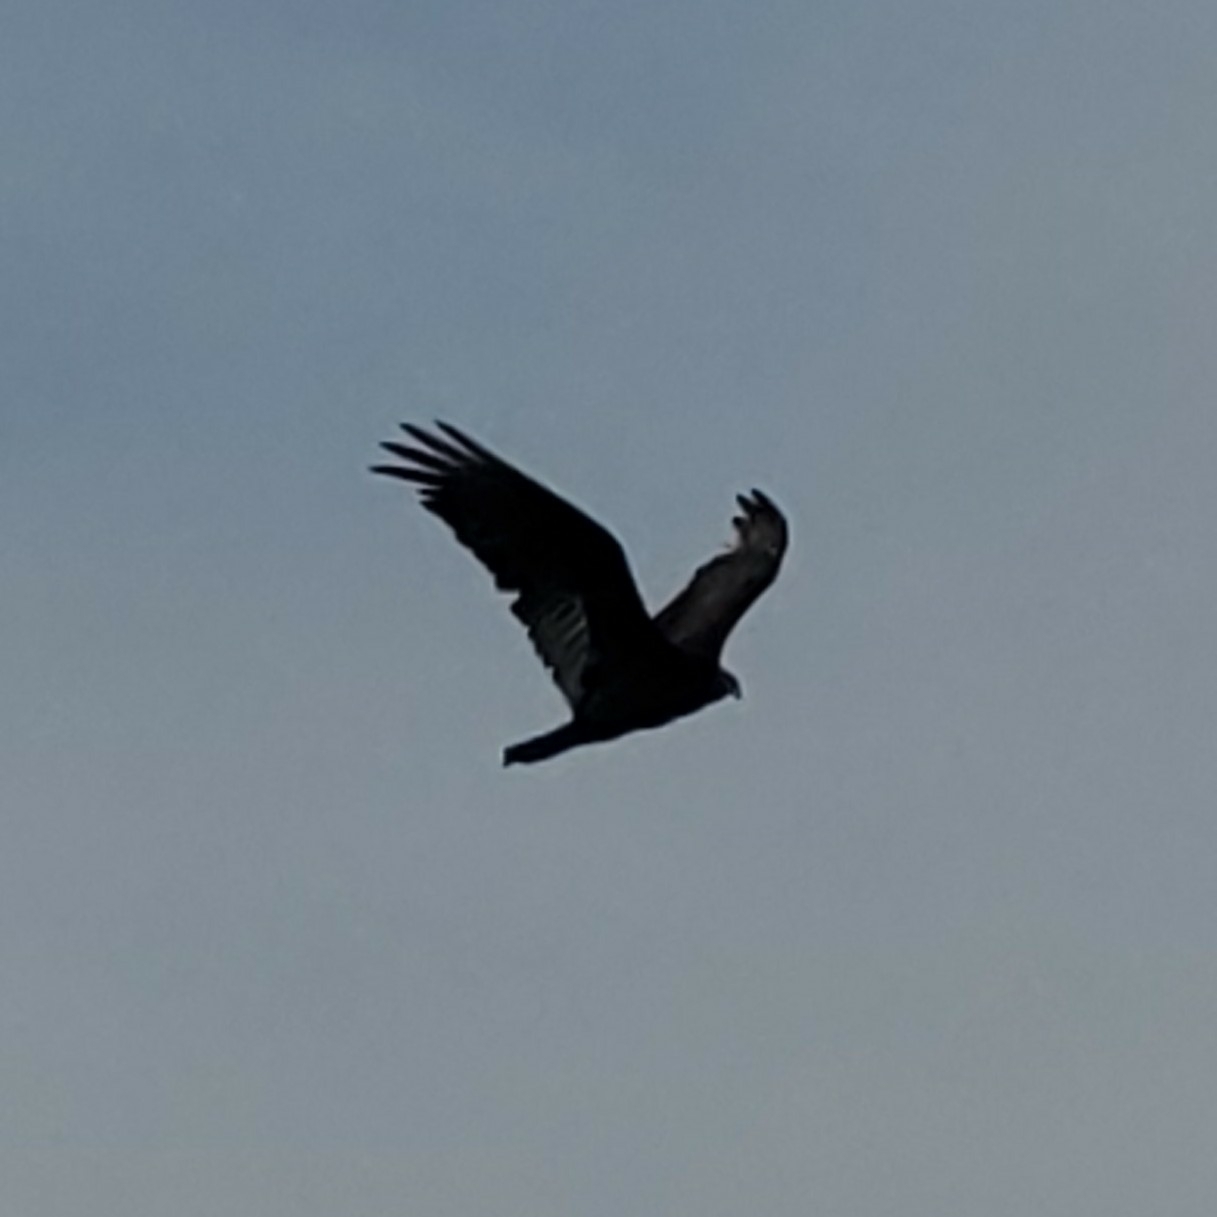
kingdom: Animalia
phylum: Chordata
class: Aves
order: Accipitriformes
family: Cathartidae
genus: Cathartes
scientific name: Cathartes aura
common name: Turkey vulture
